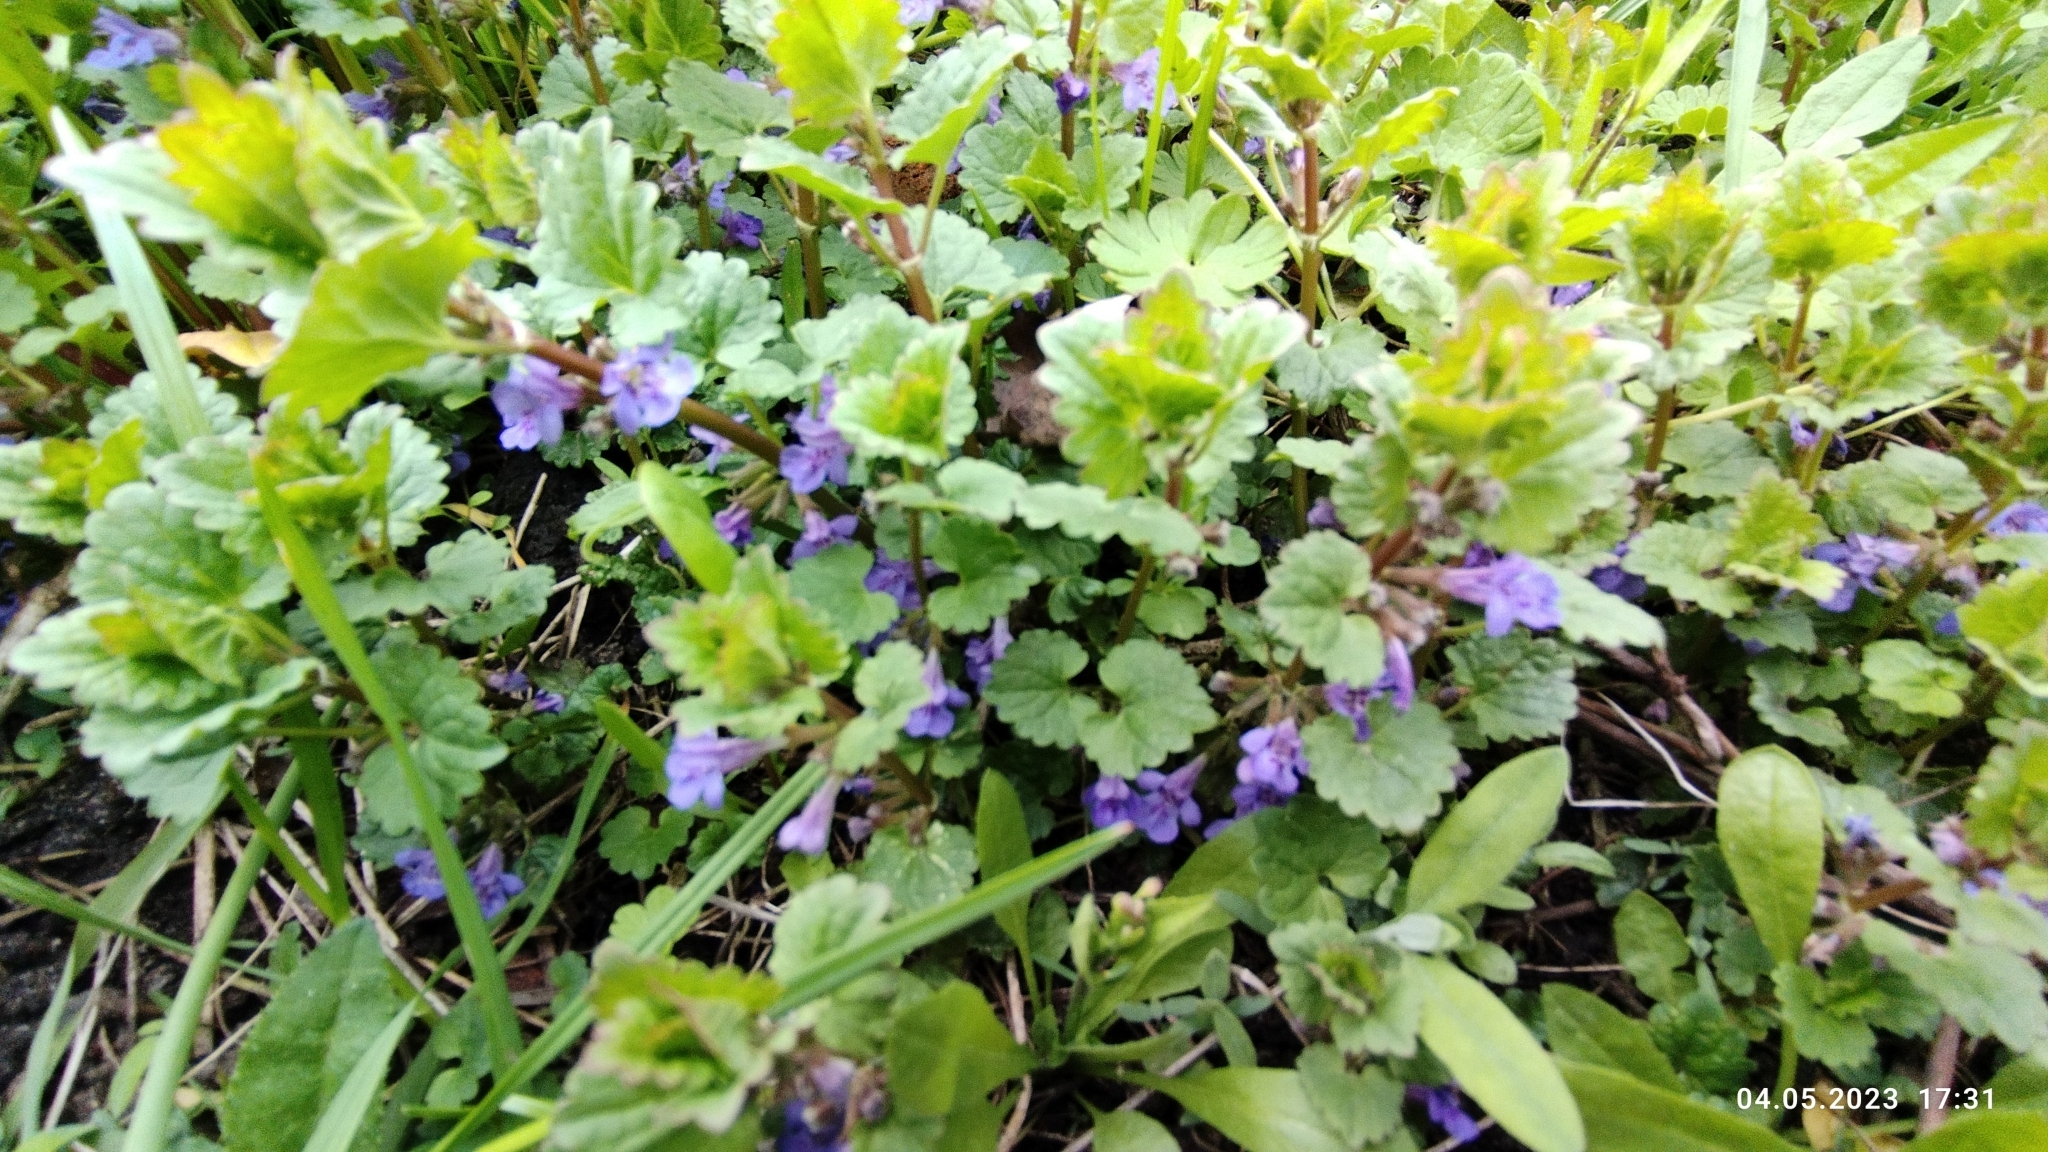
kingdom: Plantae
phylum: Tracheophyta
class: Magnoliopsida
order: Lamiales
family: Lamiaceae
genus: Glechoma
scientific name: Glechoma hederacea
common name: Ground ivy
